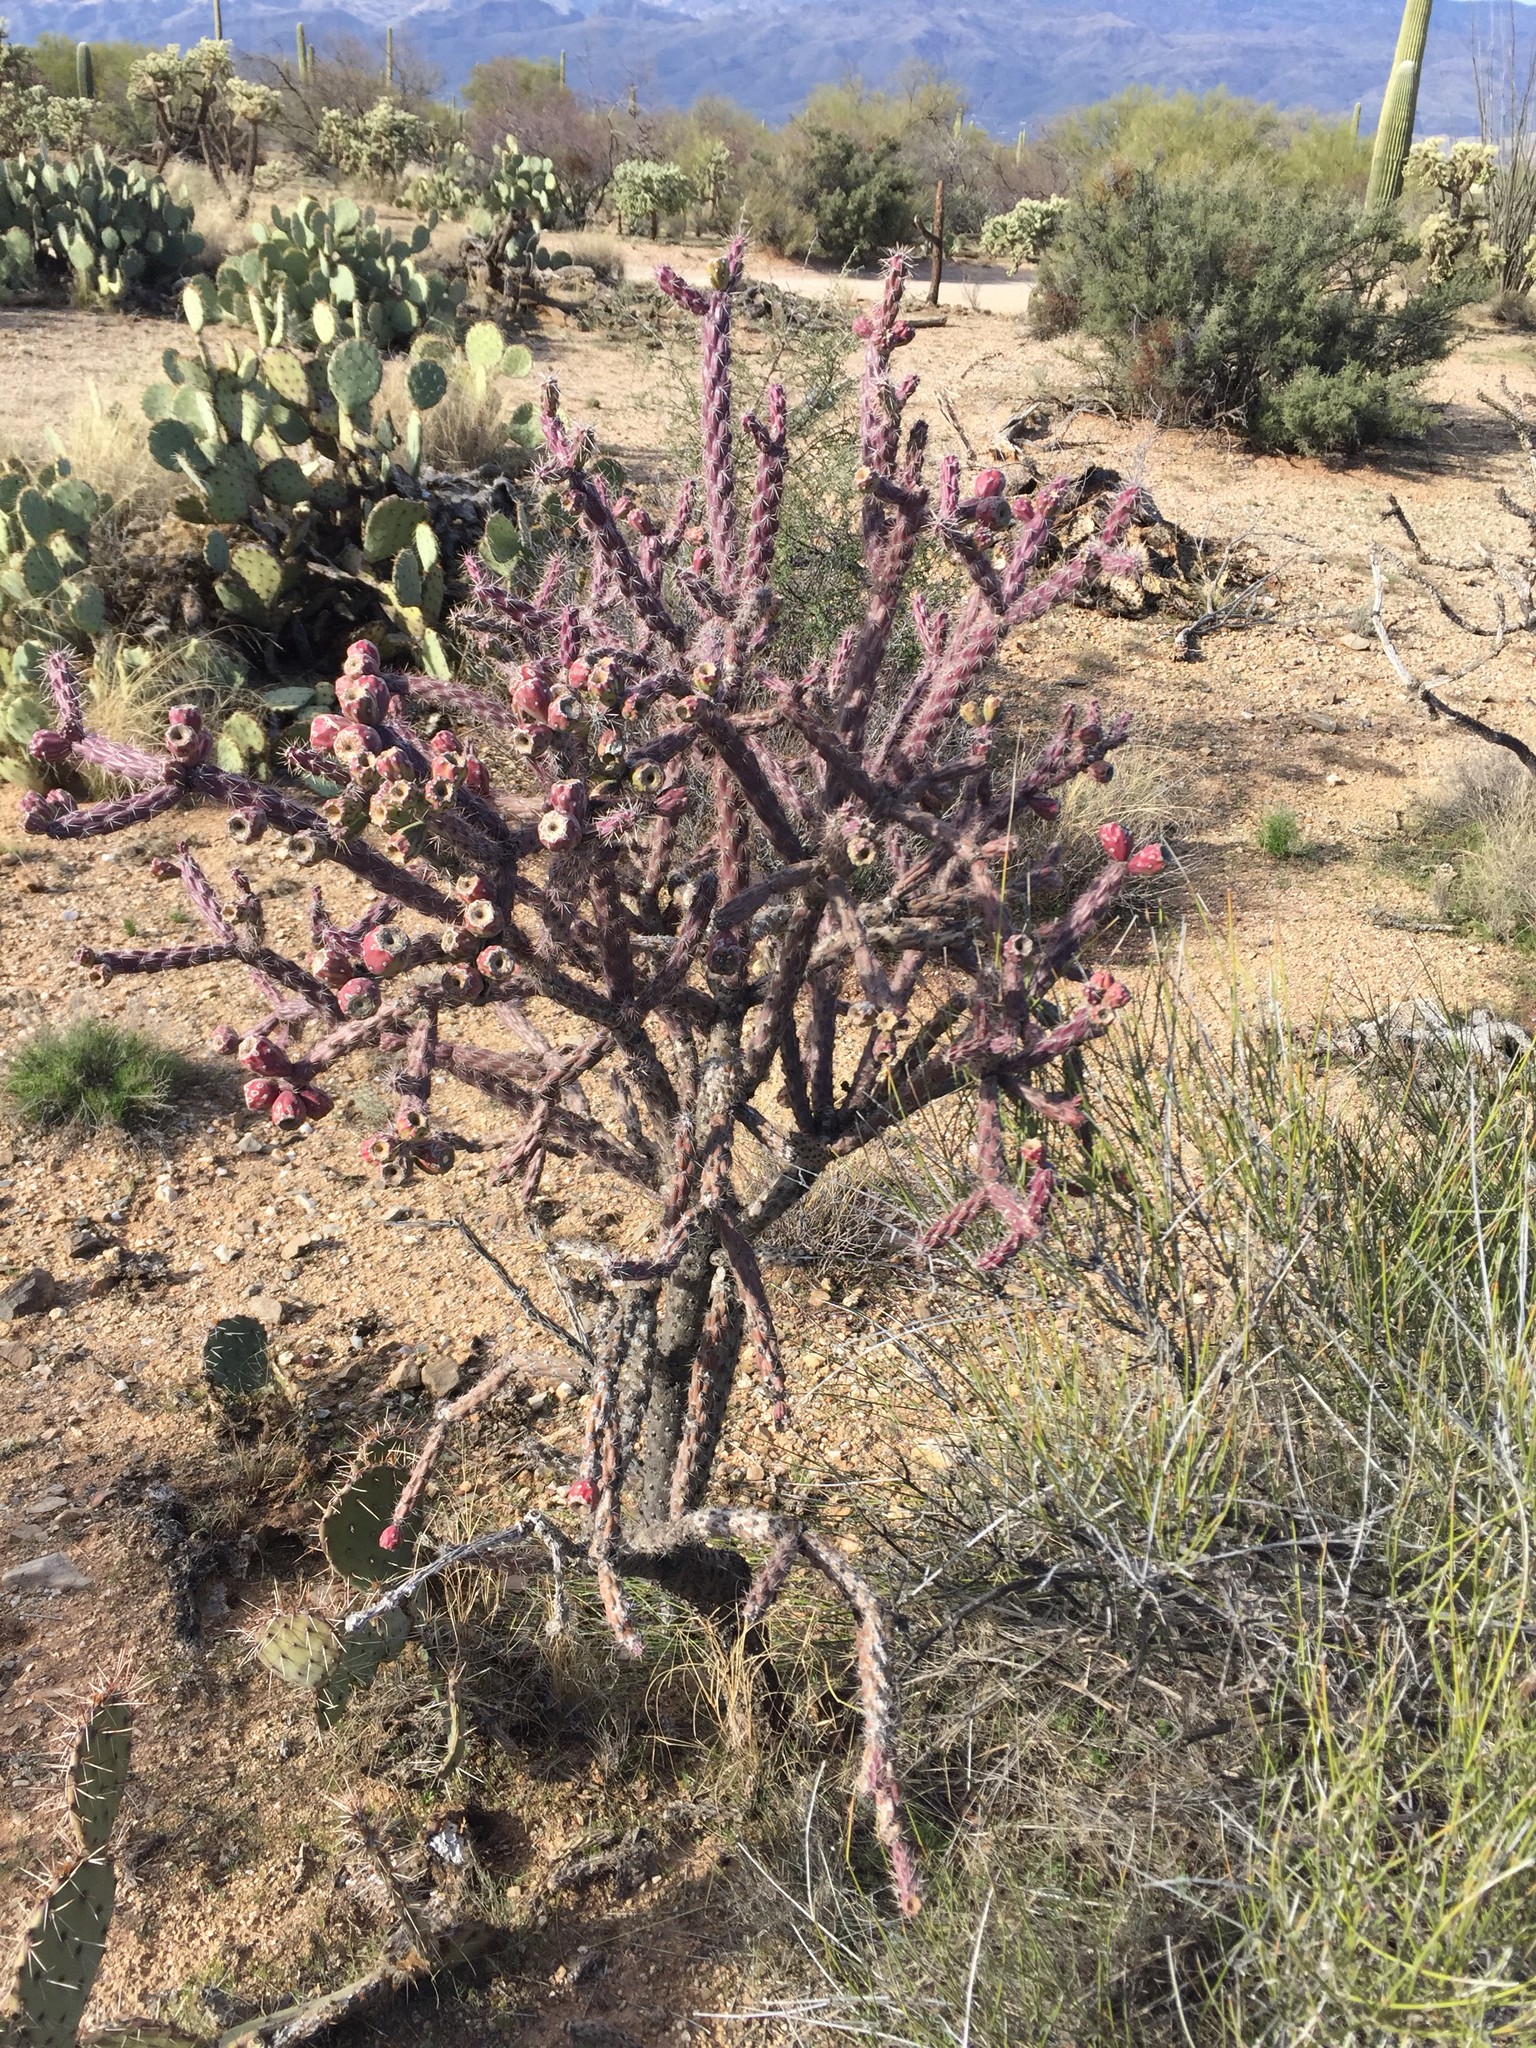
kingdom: Plantae
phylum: Tracheophyta
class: Magnoliopsida
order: Caryophyllales
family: Cactaceae
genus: Cylindropuntia
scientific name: Cylindropuntia thurberi
